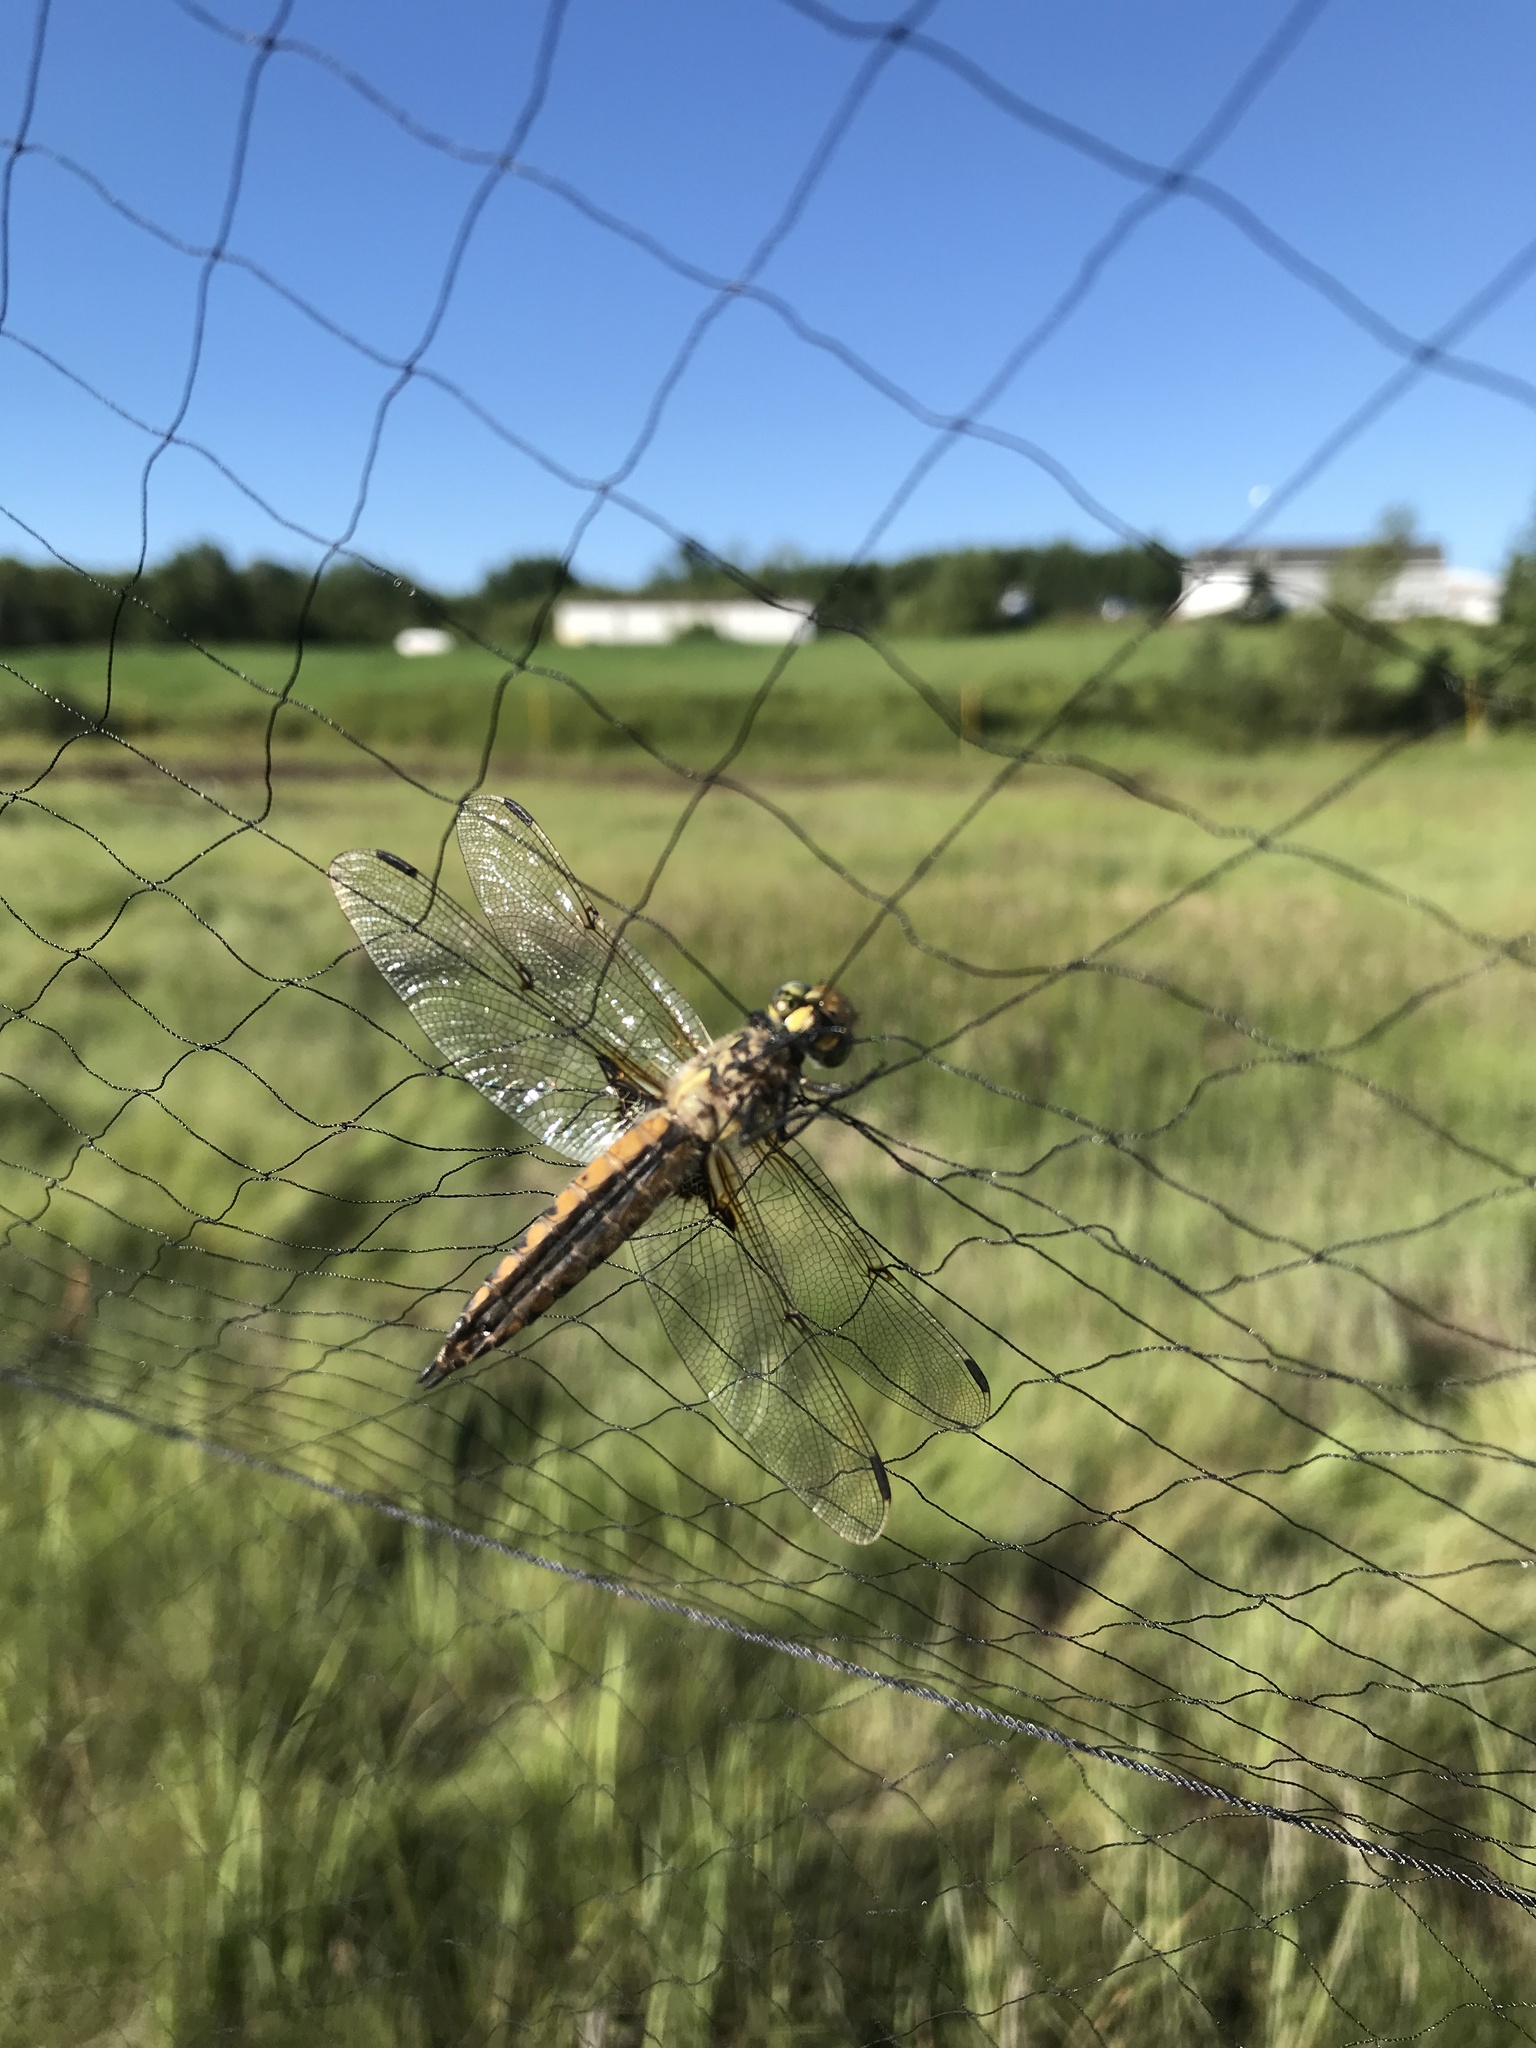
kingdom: Animalia
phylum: Arthropoda
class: Insecta
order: Odonata
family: Libellulidae
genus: Libellula
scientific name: Libellula quadrimaculata
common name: Four-spotted chaser
